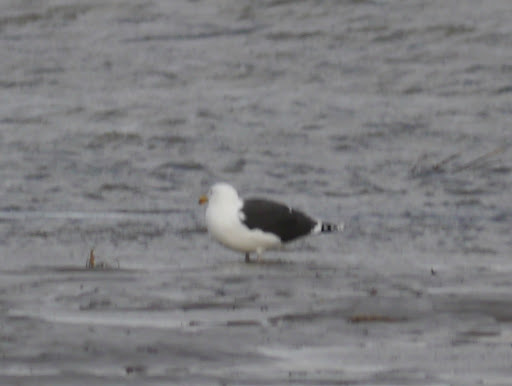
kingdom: Animalia
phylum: Chordata
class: Aves
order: Charadriiformes
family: Laridae
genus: Larus
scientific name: Larus marinus
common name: Great black-backed gull
